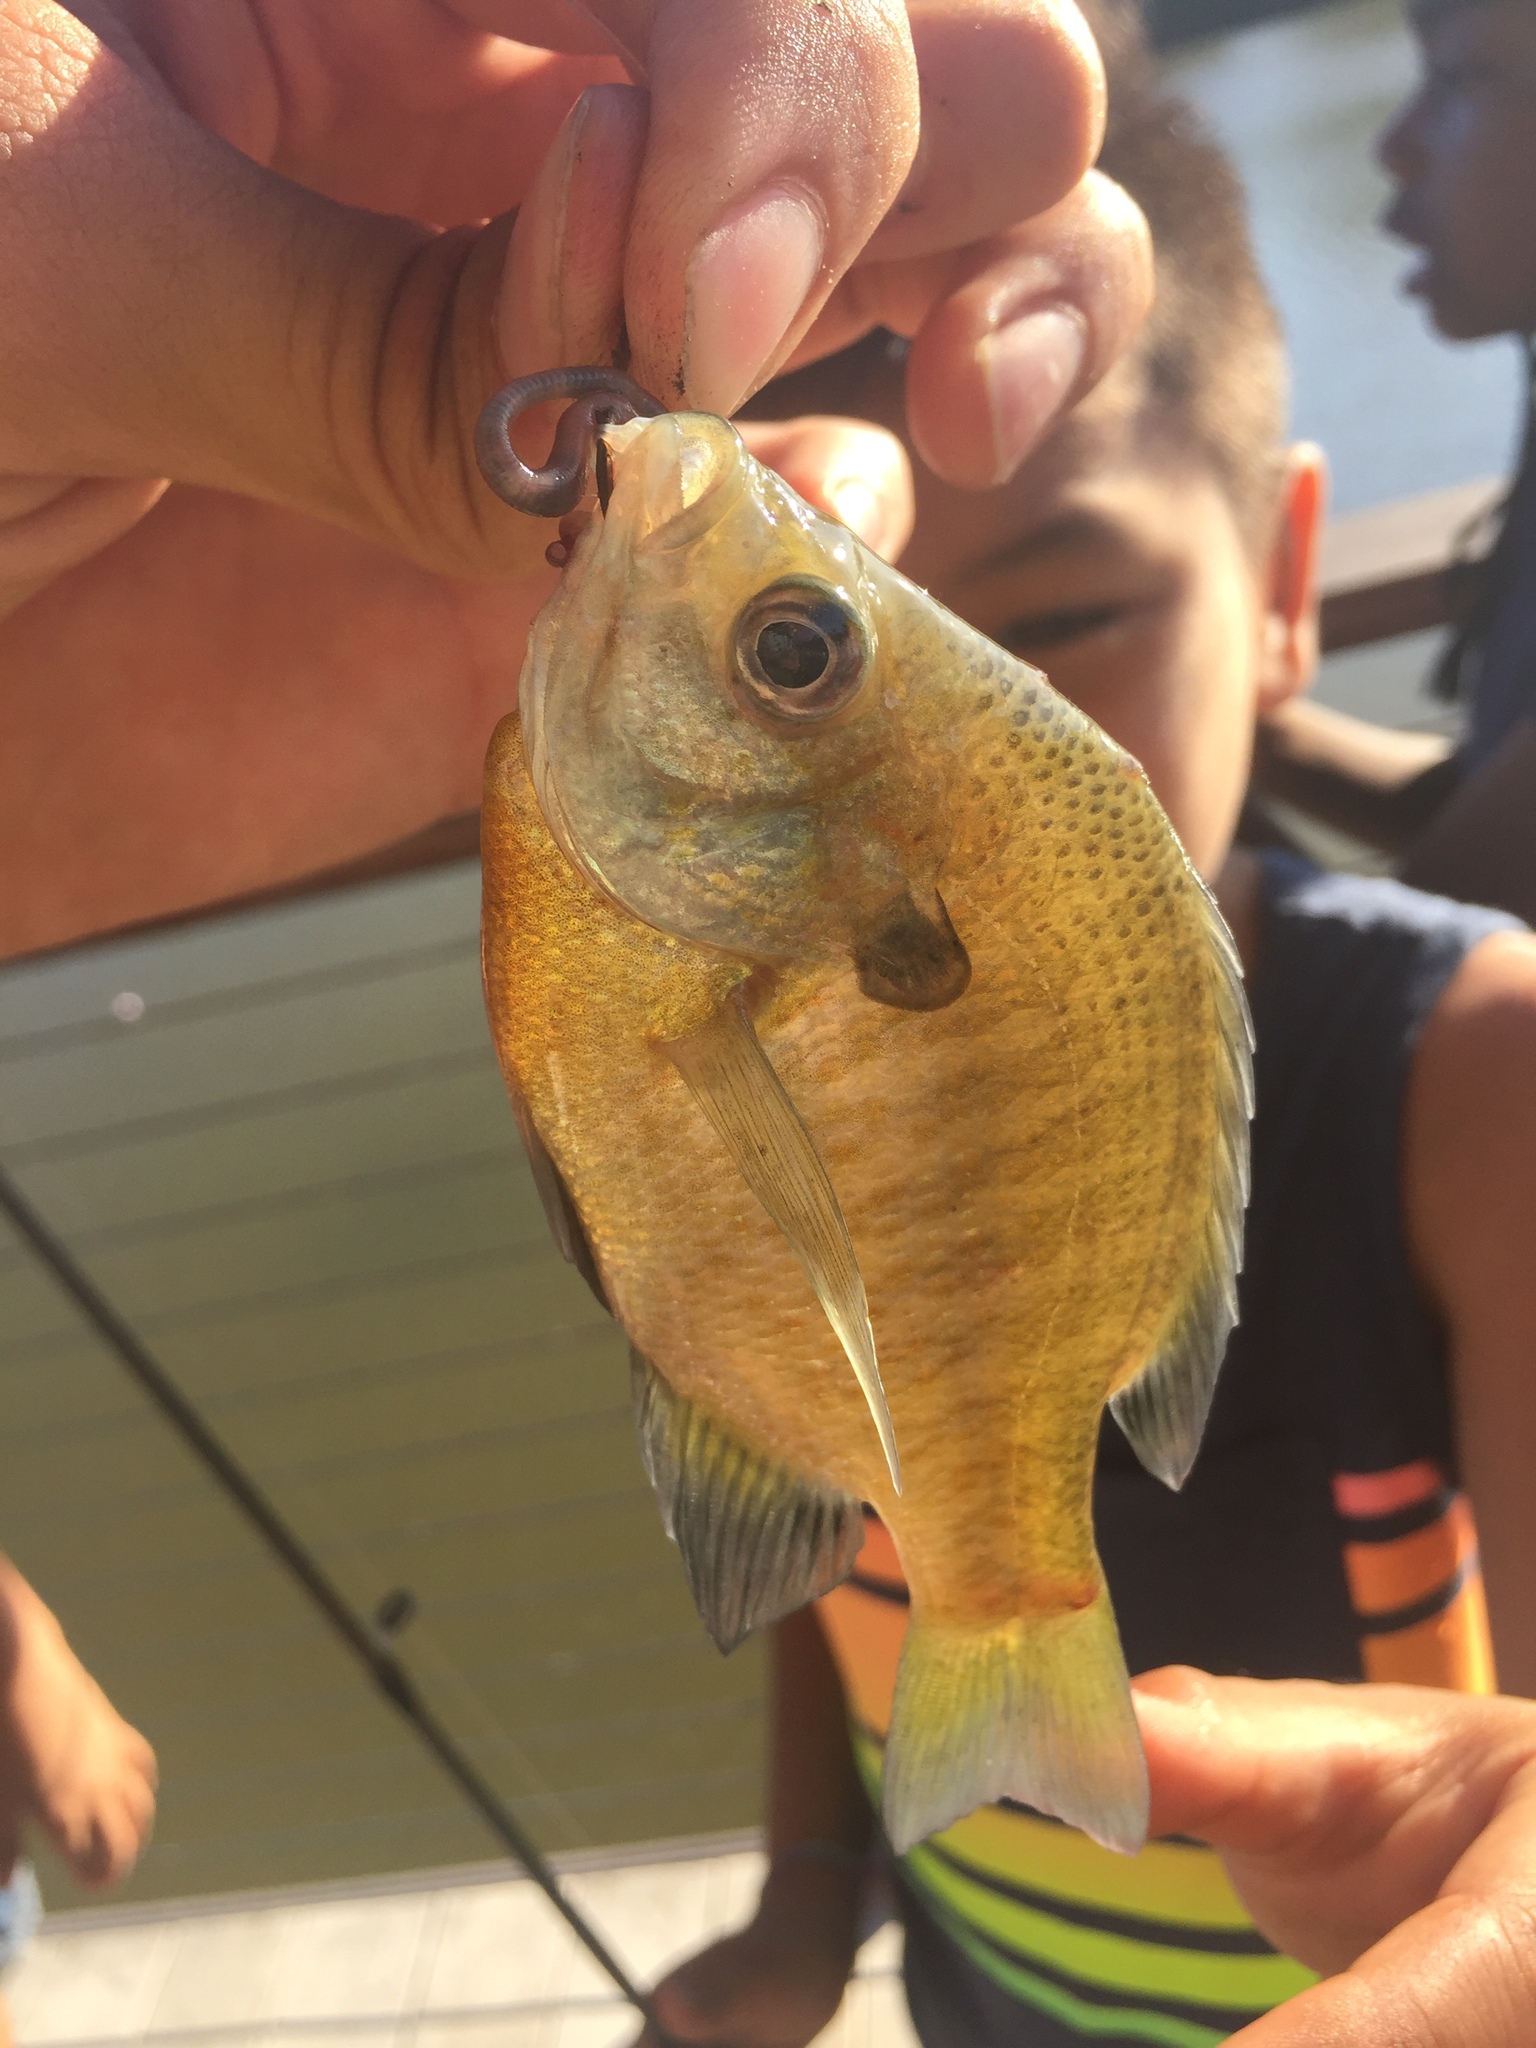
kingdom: Animalia
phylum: Chordata
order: Perciformes
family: Centrarchidae
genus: Lepomis
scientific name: Lepomis macrochirus
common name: Bluegill
